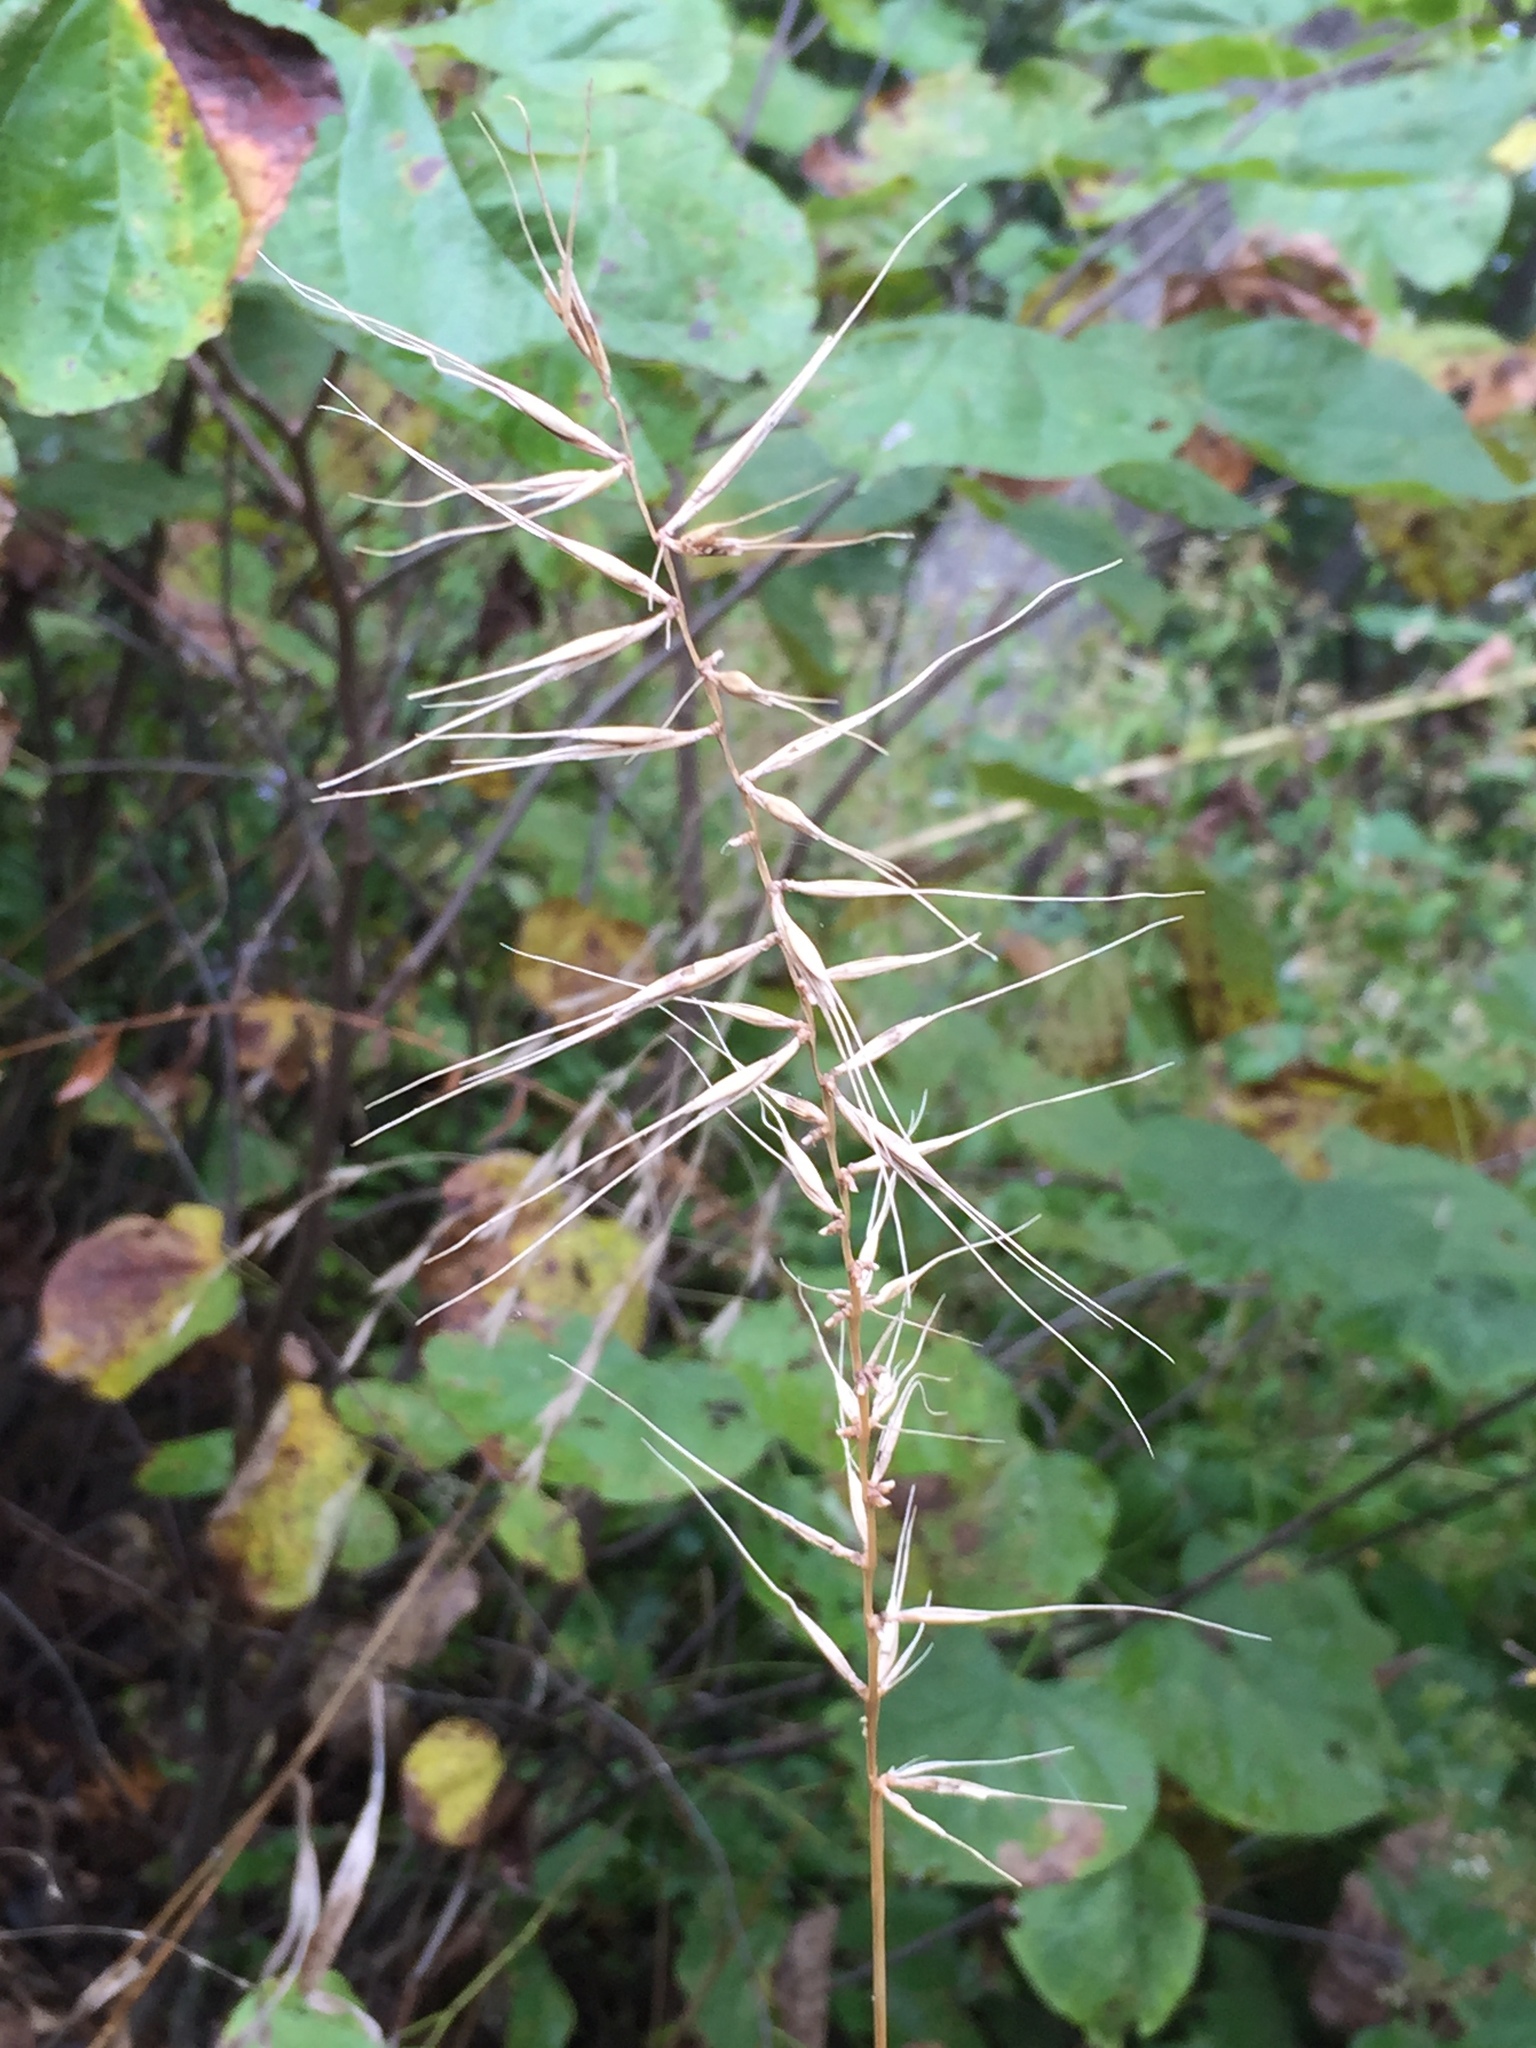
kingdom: Plantae
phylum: Tracheophyta
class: Liliopsida
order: Poales
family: Poaceae
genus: Elymus
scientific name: Elymus hystrix
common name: Bottlebrush grass
